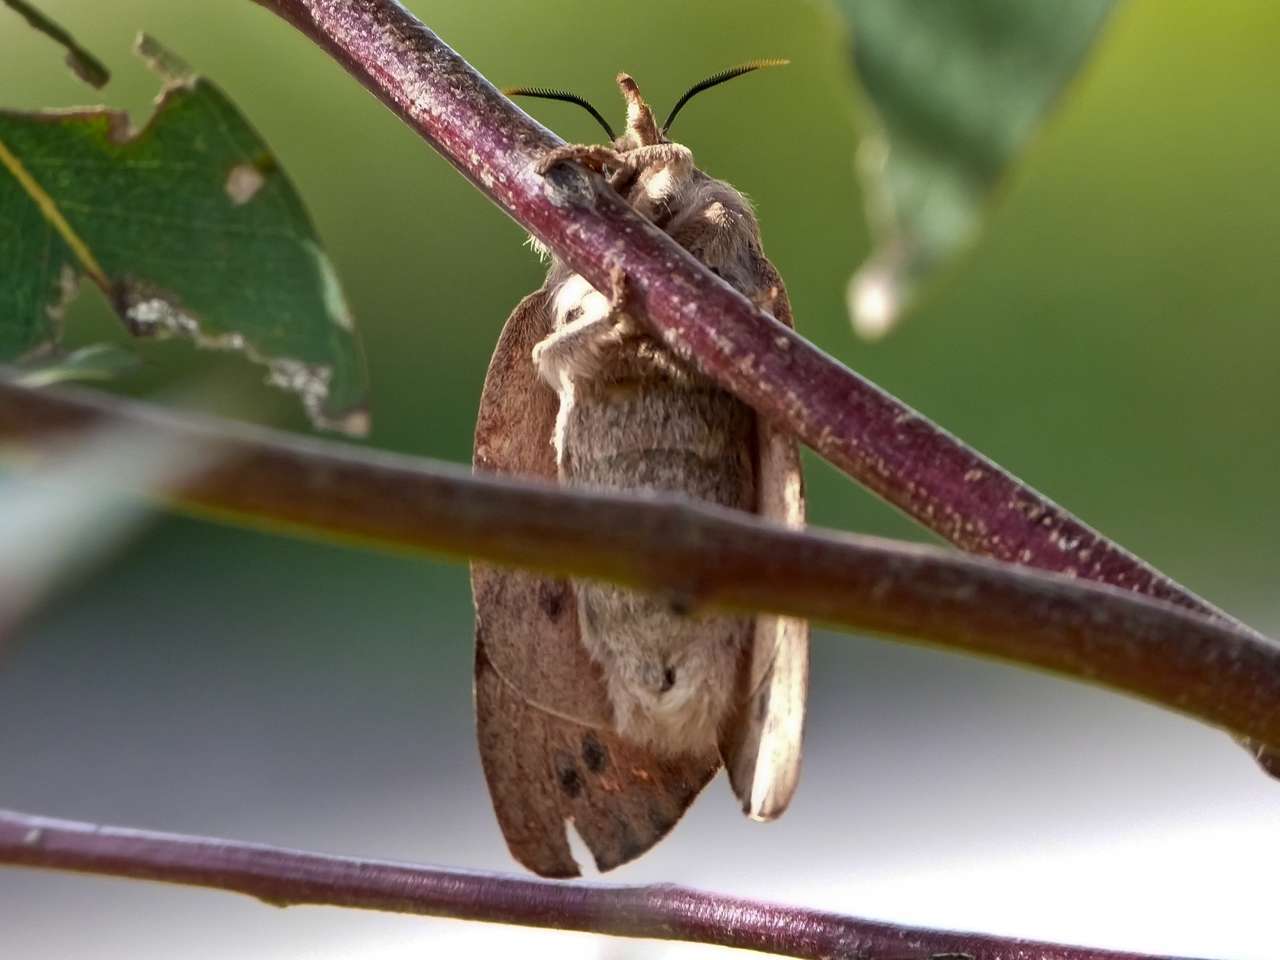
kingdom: Animalia
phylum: Arthropoda
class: Insecta
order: Lepidoptera
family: Lasiocampidae
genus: Entometa
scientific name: Entometa fervens
